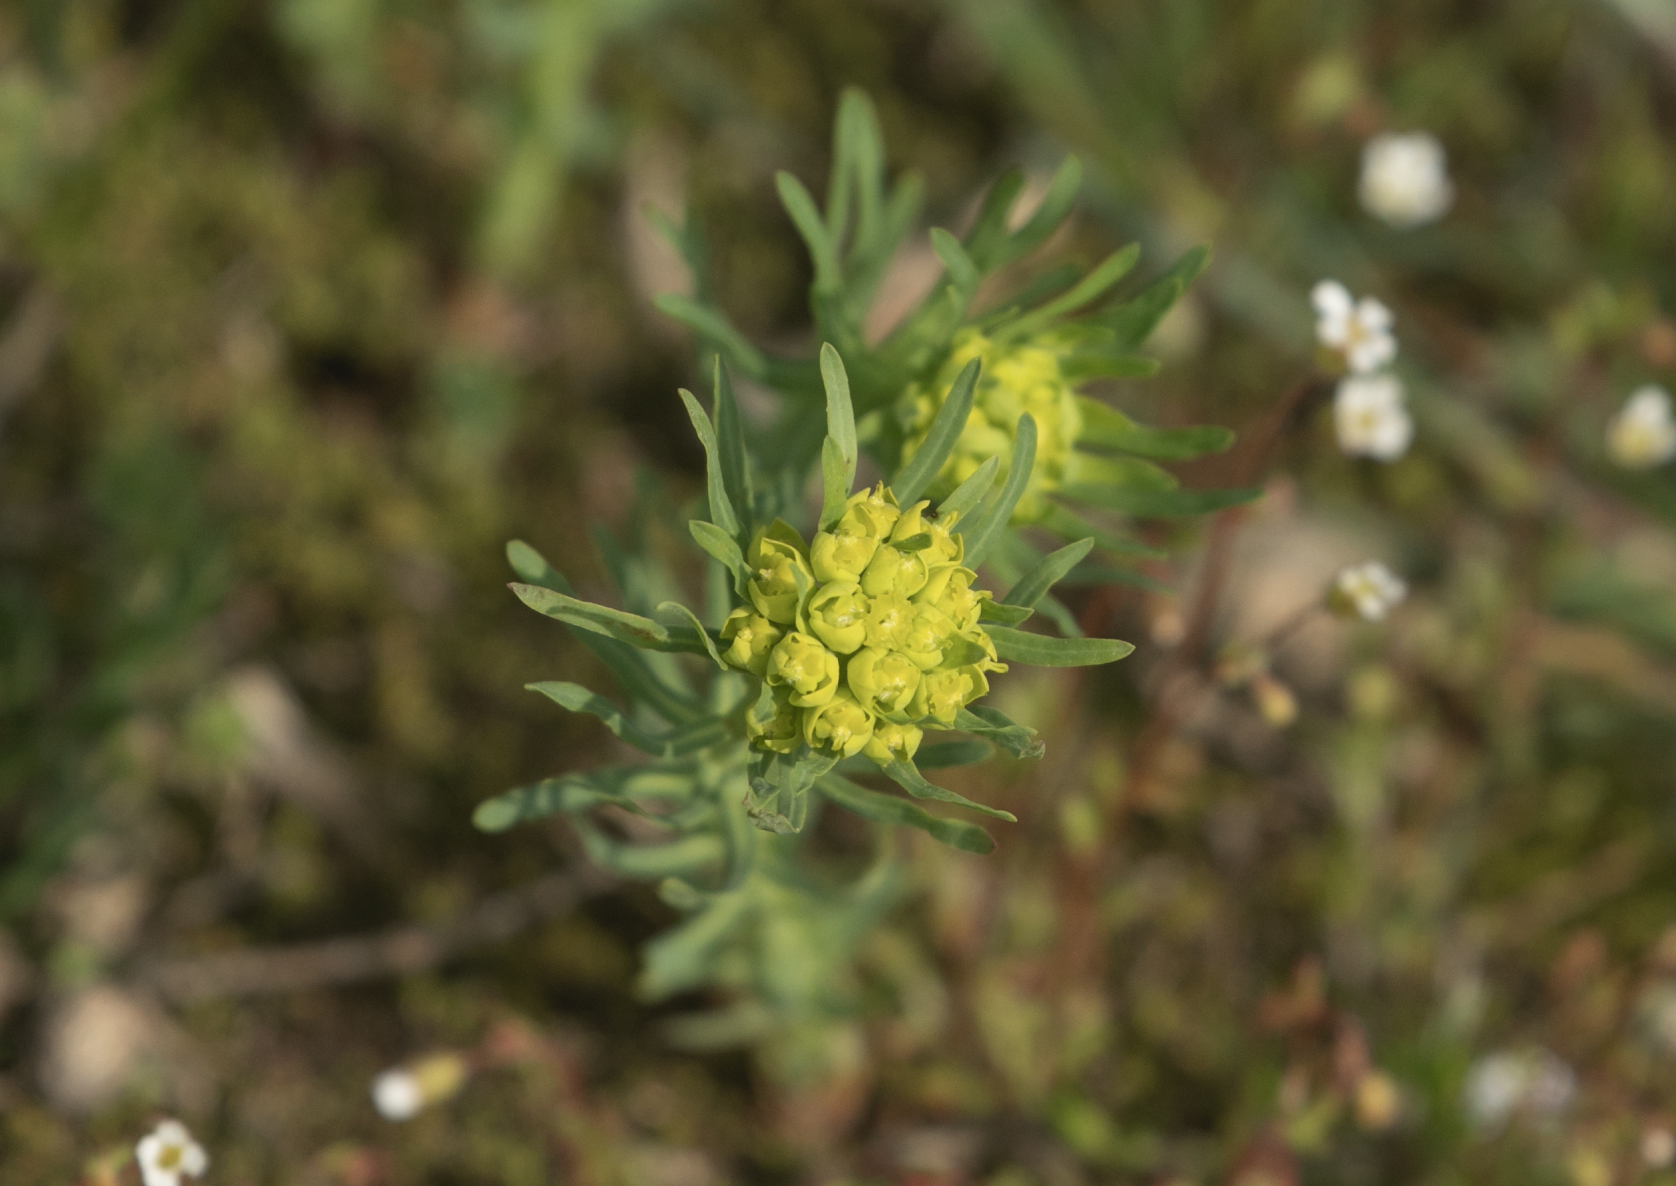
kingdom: Plantae
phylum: Tracheophyta
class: Magnoliopsida
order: Malpighiales
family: Euphorbiaceae
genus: Euphorbia
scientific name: Euphorbia cyparissias
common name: Cypress spurge
